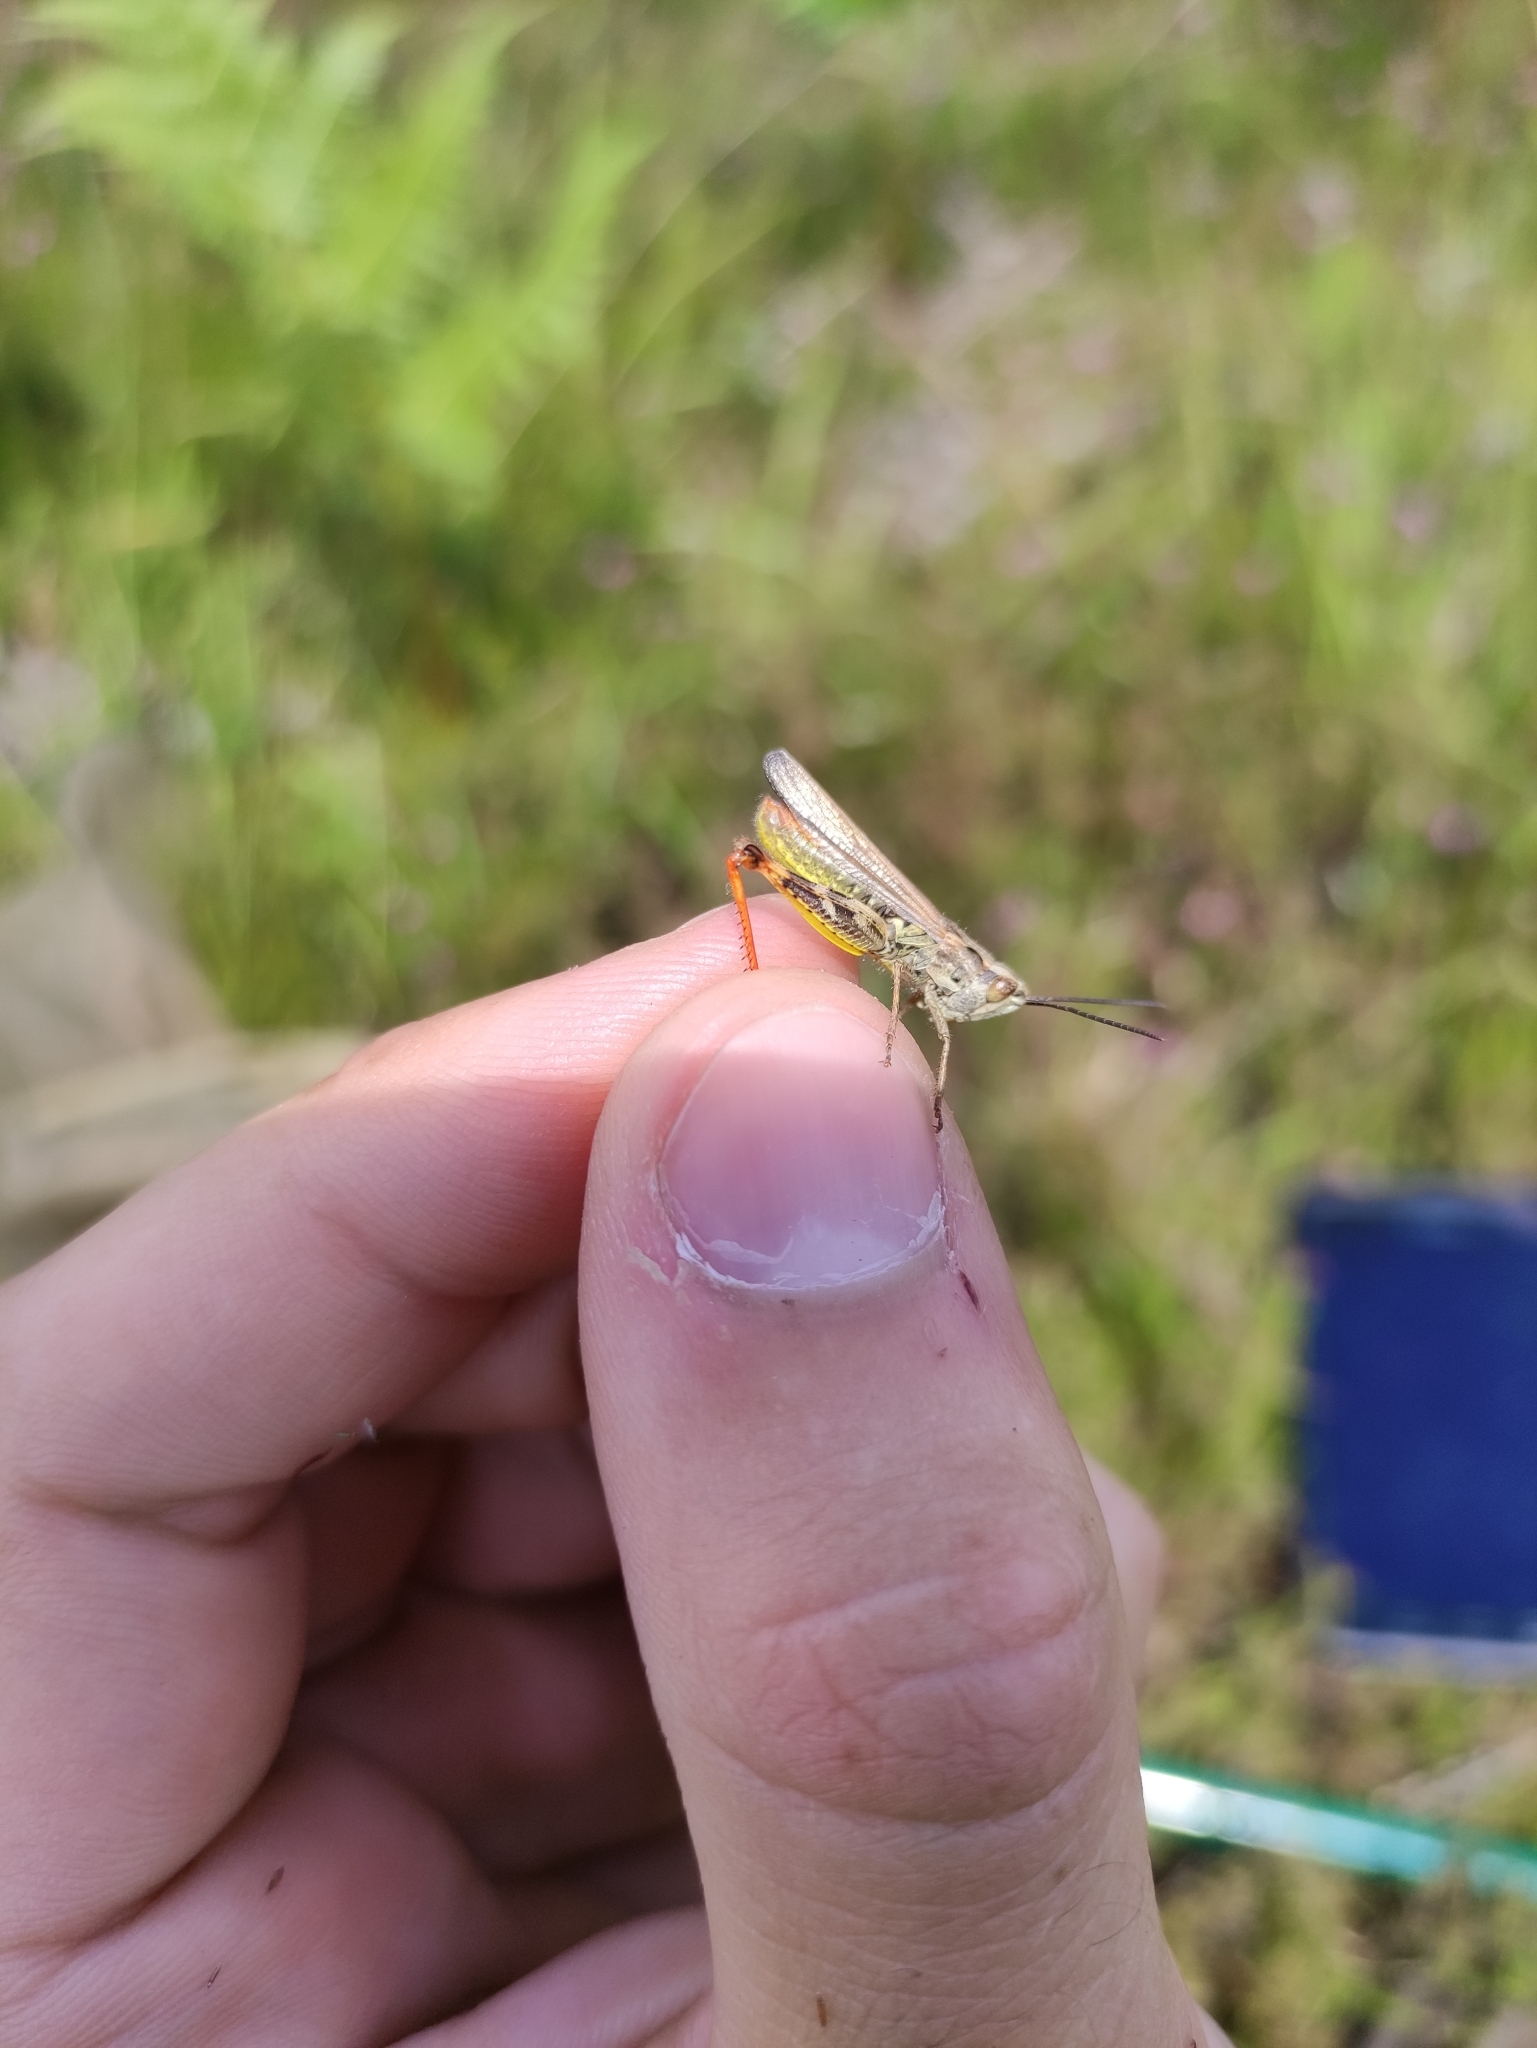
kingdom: Animalia
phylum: Arthropoda
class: Insecta
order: Orthoptera
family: Acrididae
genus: Chorthippus
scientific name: Chorthippus binotatus
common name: Two-marked grasshopper
